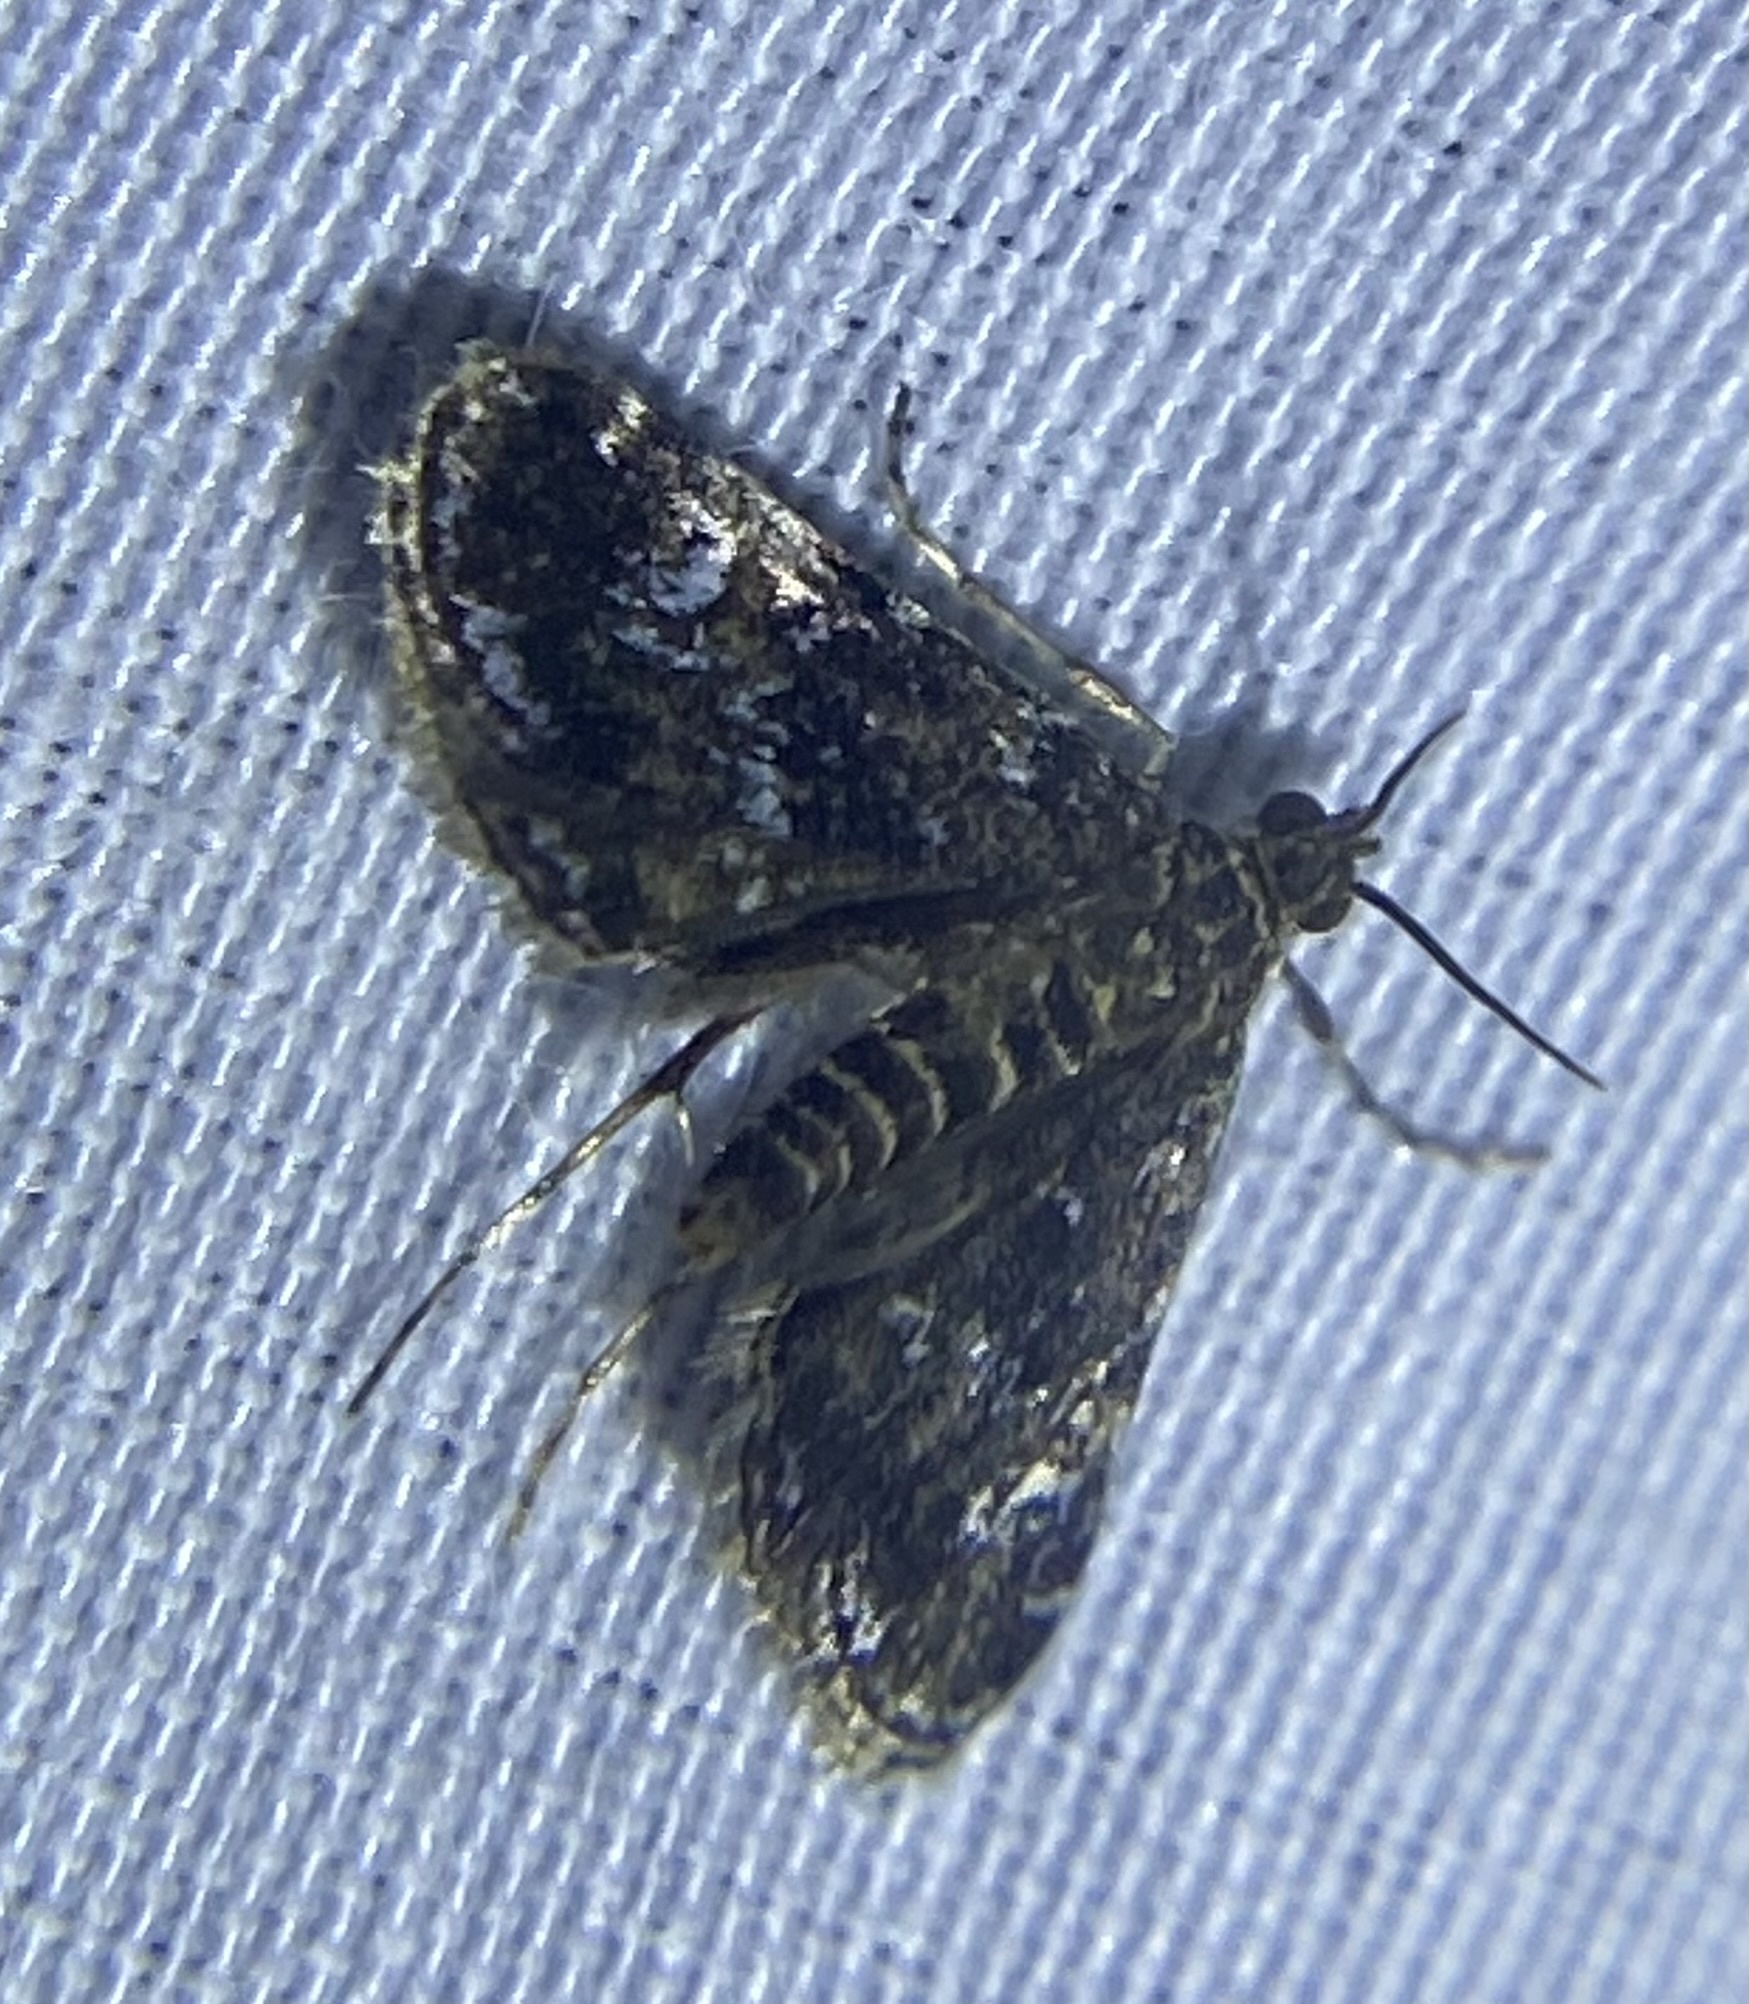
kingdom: Animalia
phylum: Arthropoda
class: Insecta
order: Lepidoptera
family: Crambidae
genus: Elophila
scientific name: Elophila obliteralis
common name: Waterlily leafcutter moth
